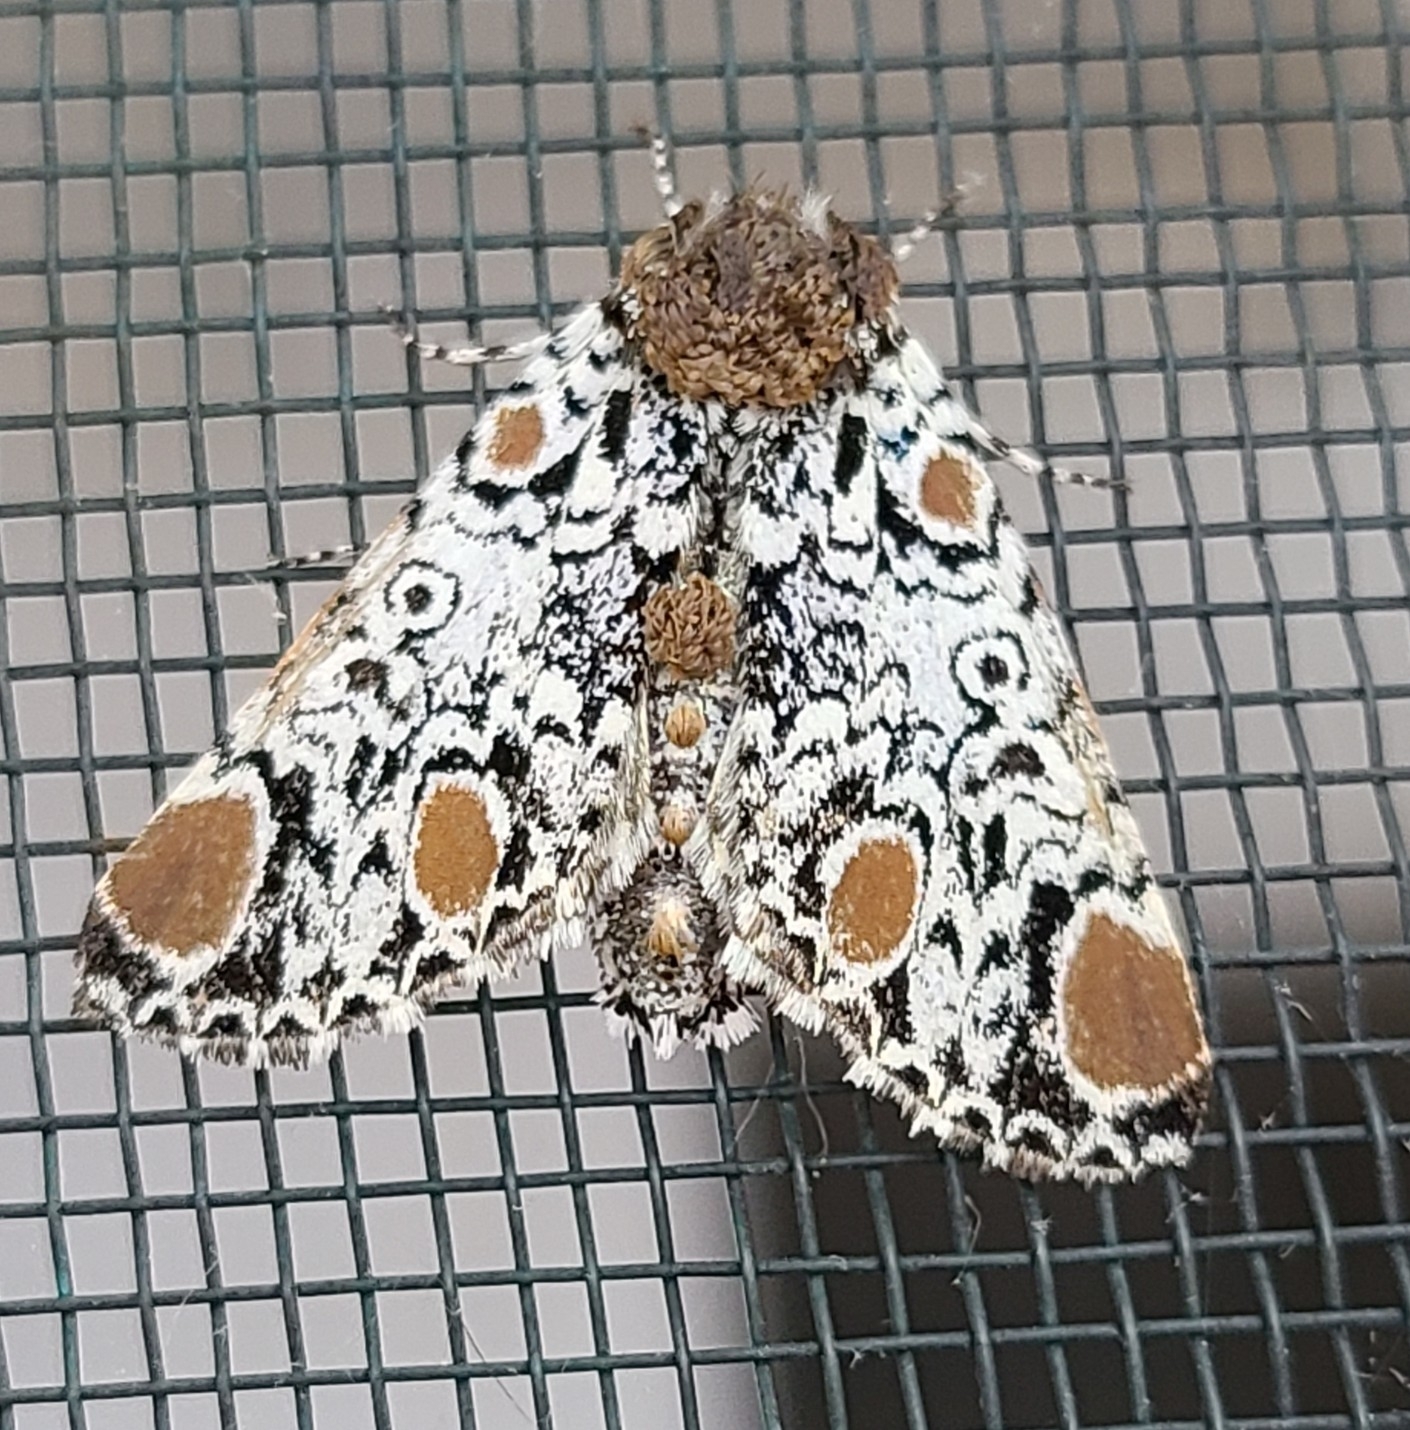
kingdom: Animalia
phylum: Arthropoda
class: Insecta
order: Lepidoptera
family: Noctuidae
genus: Harrisimemna
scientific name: Harrisimemna trisignata
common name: Harris threespot
